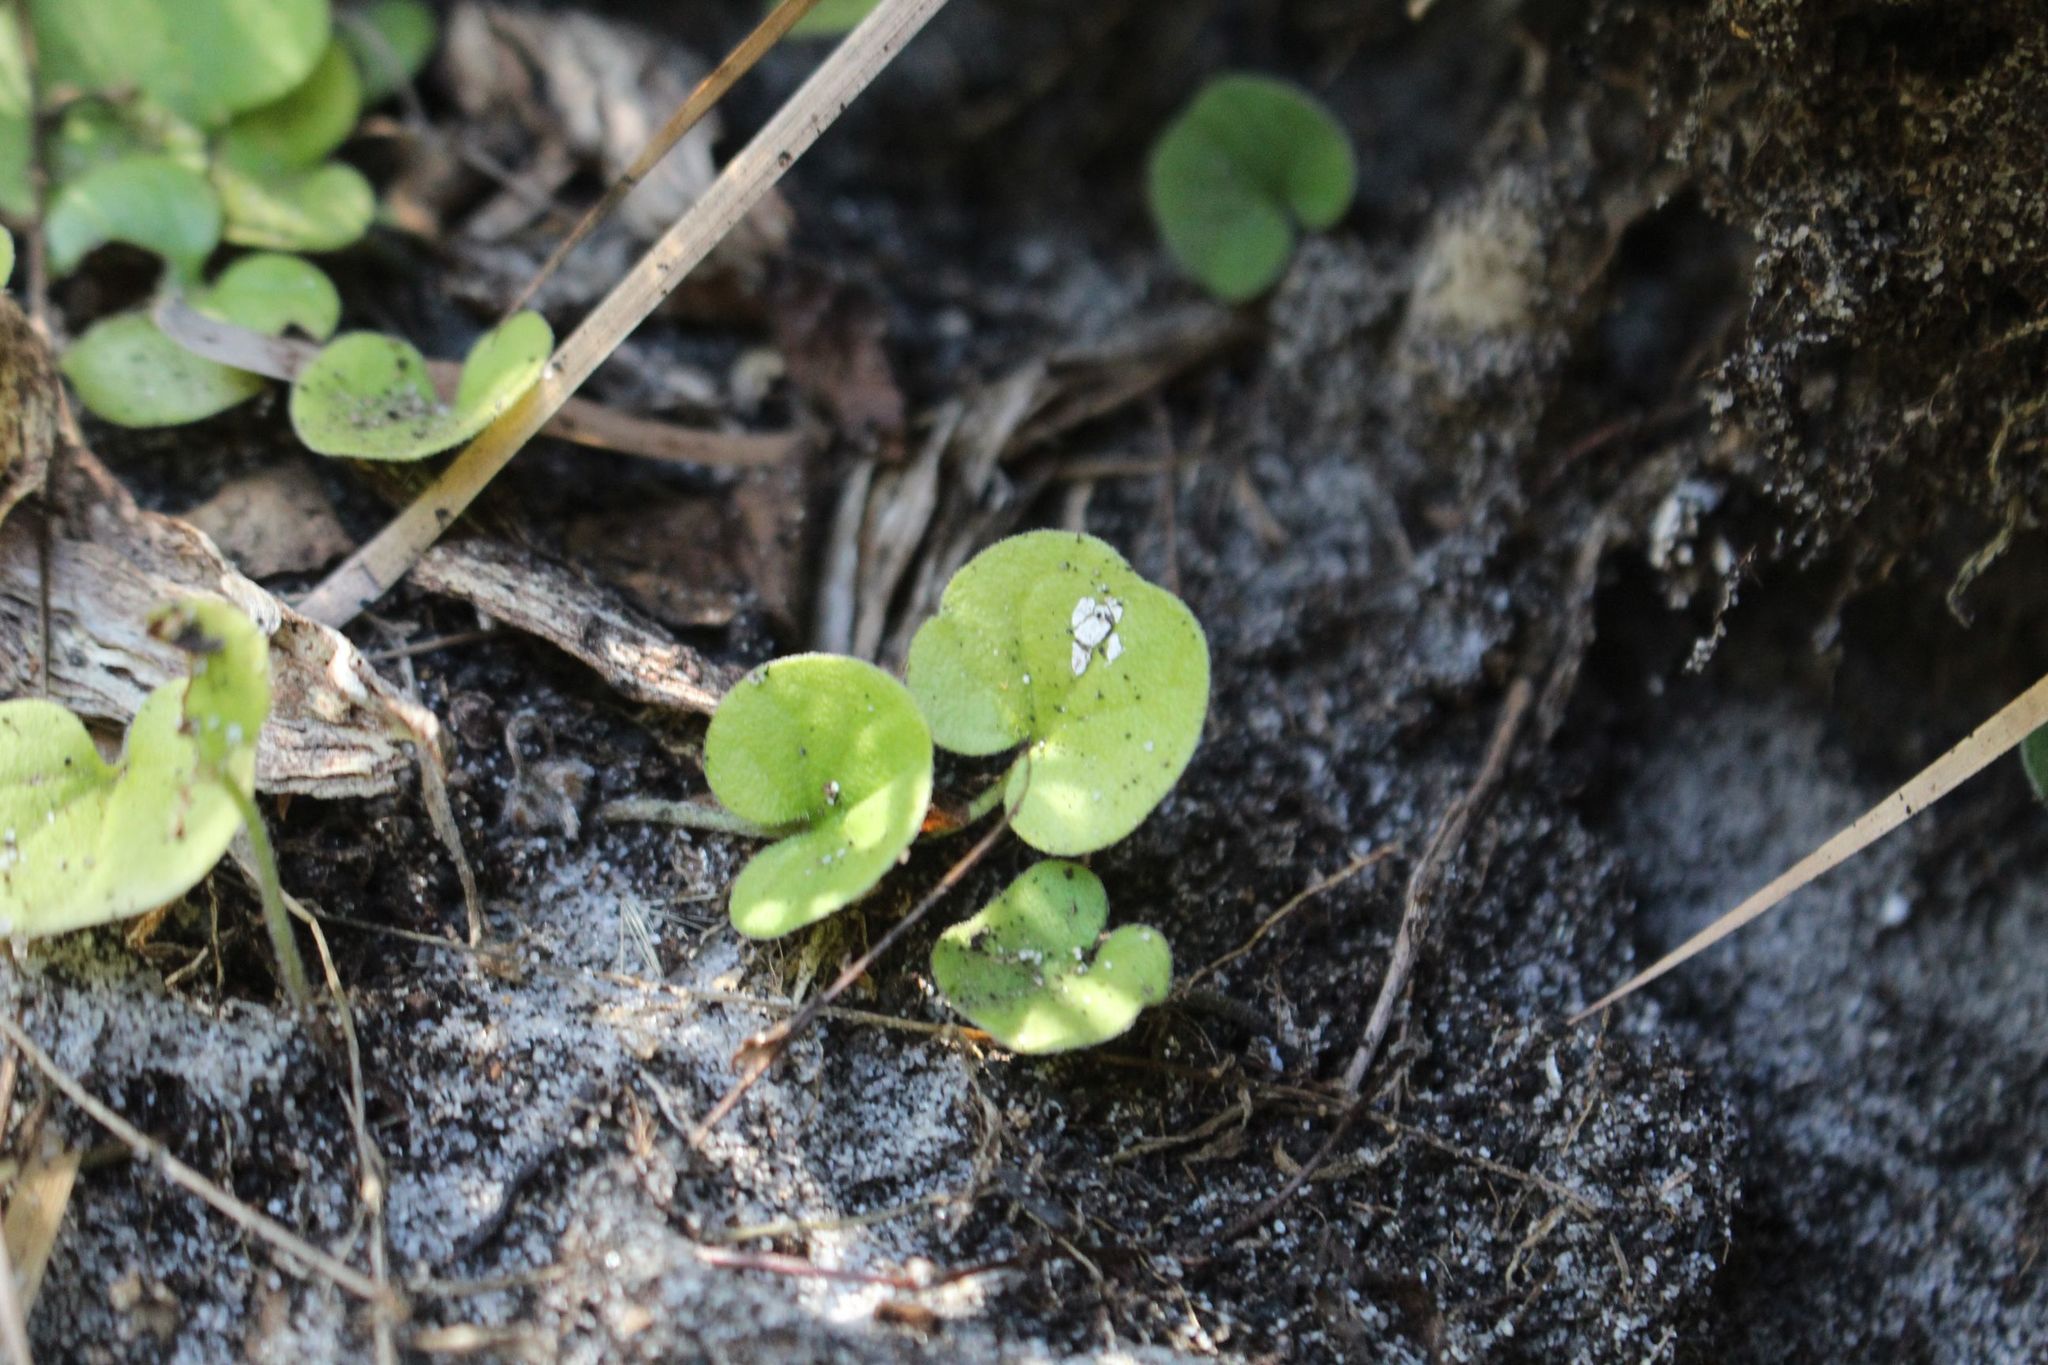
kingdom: Plantae
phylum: Tracheophyta
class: Magnoliopsida
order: Solanales
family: Convolvulaceae
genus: Dichondra
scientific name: Dichondra repens
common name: Kidneyweed
